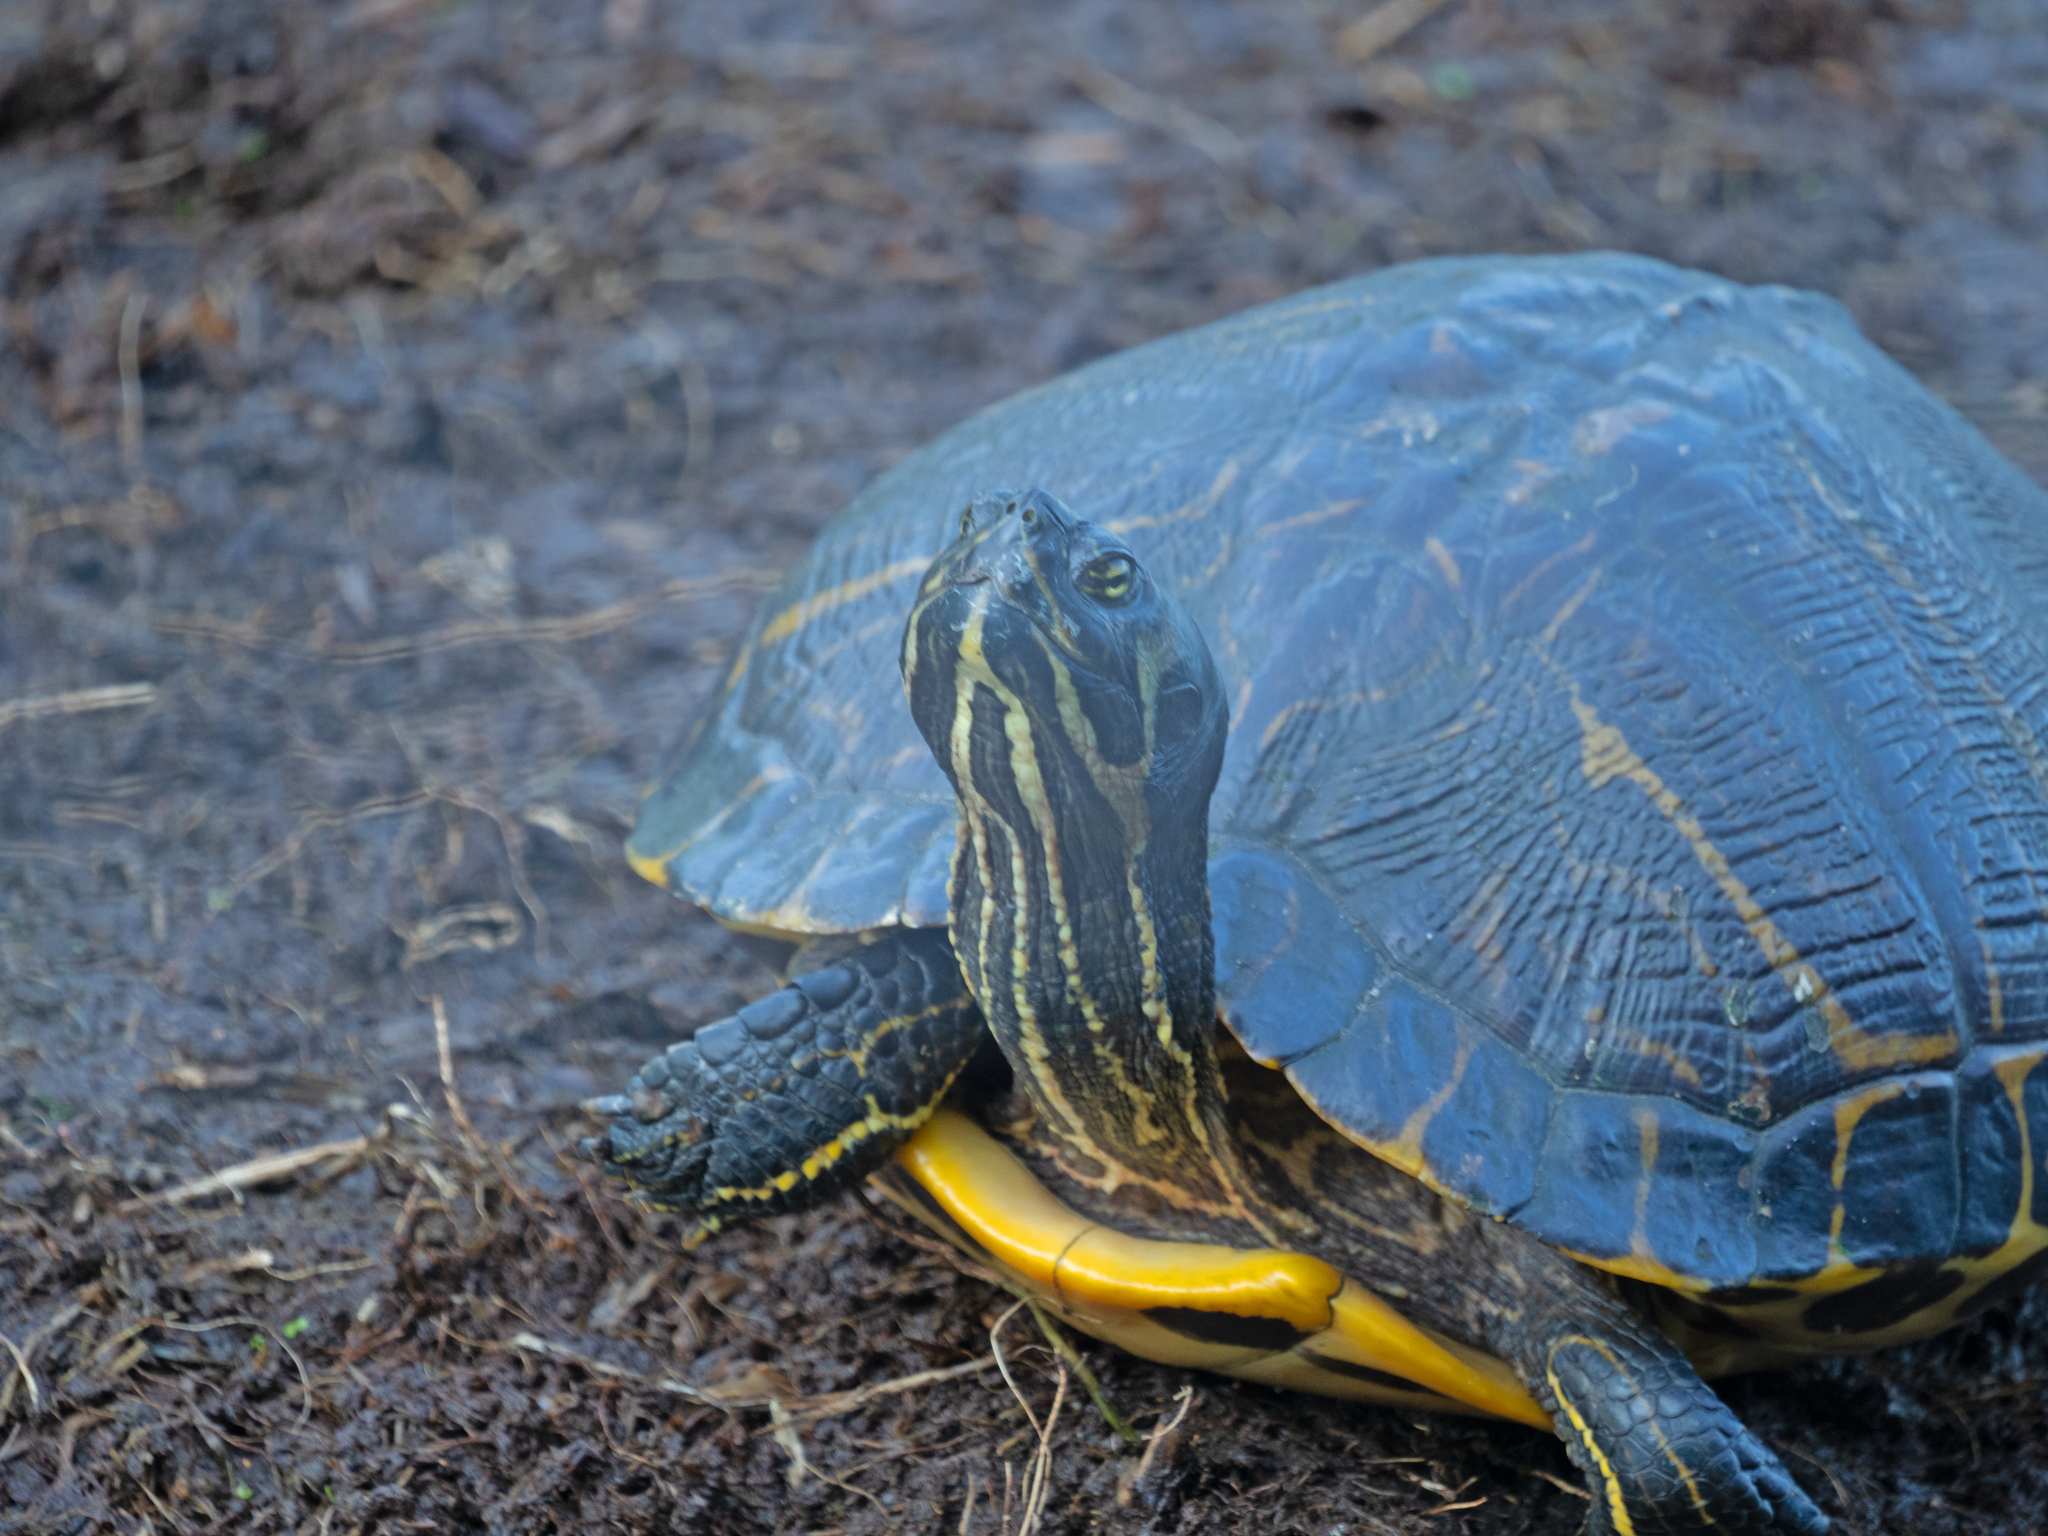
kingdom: Animalia
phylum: Chordata
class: Testudines
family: Emydidae
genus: Trachemys
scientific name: Trachemys scripta
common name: Slider
